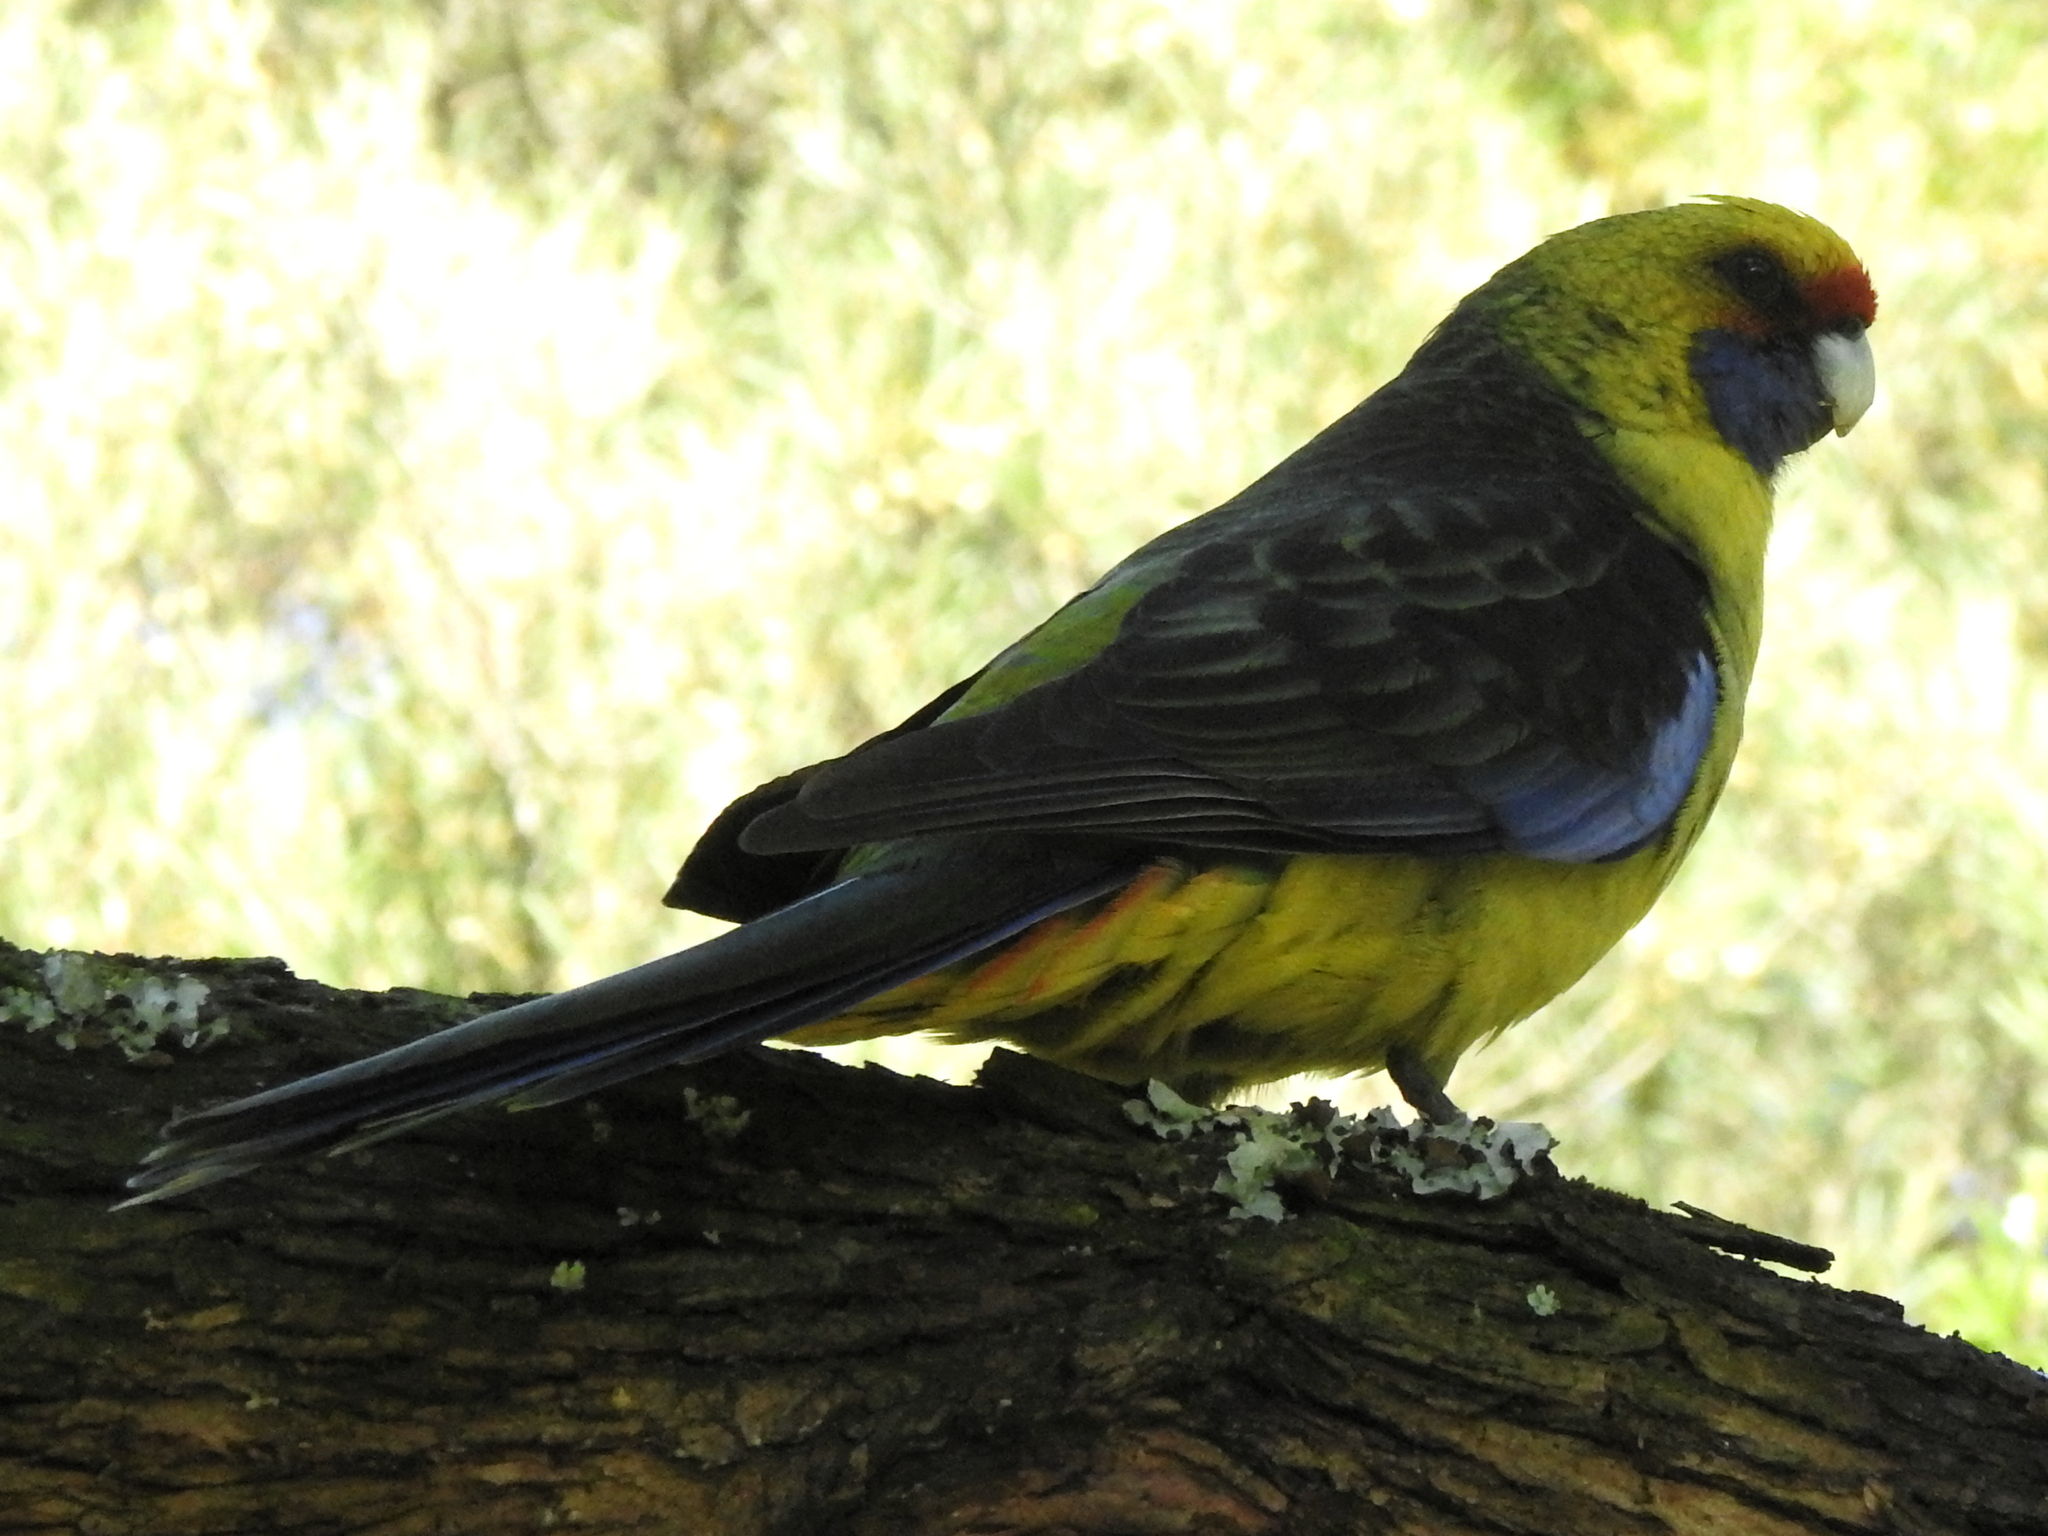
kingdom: Animalia
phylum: Chordata
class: Aves
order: Psittaciformes
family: Psittacidae
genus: Platycercus
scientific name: Platycercus caledonicus
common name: Green rosella
